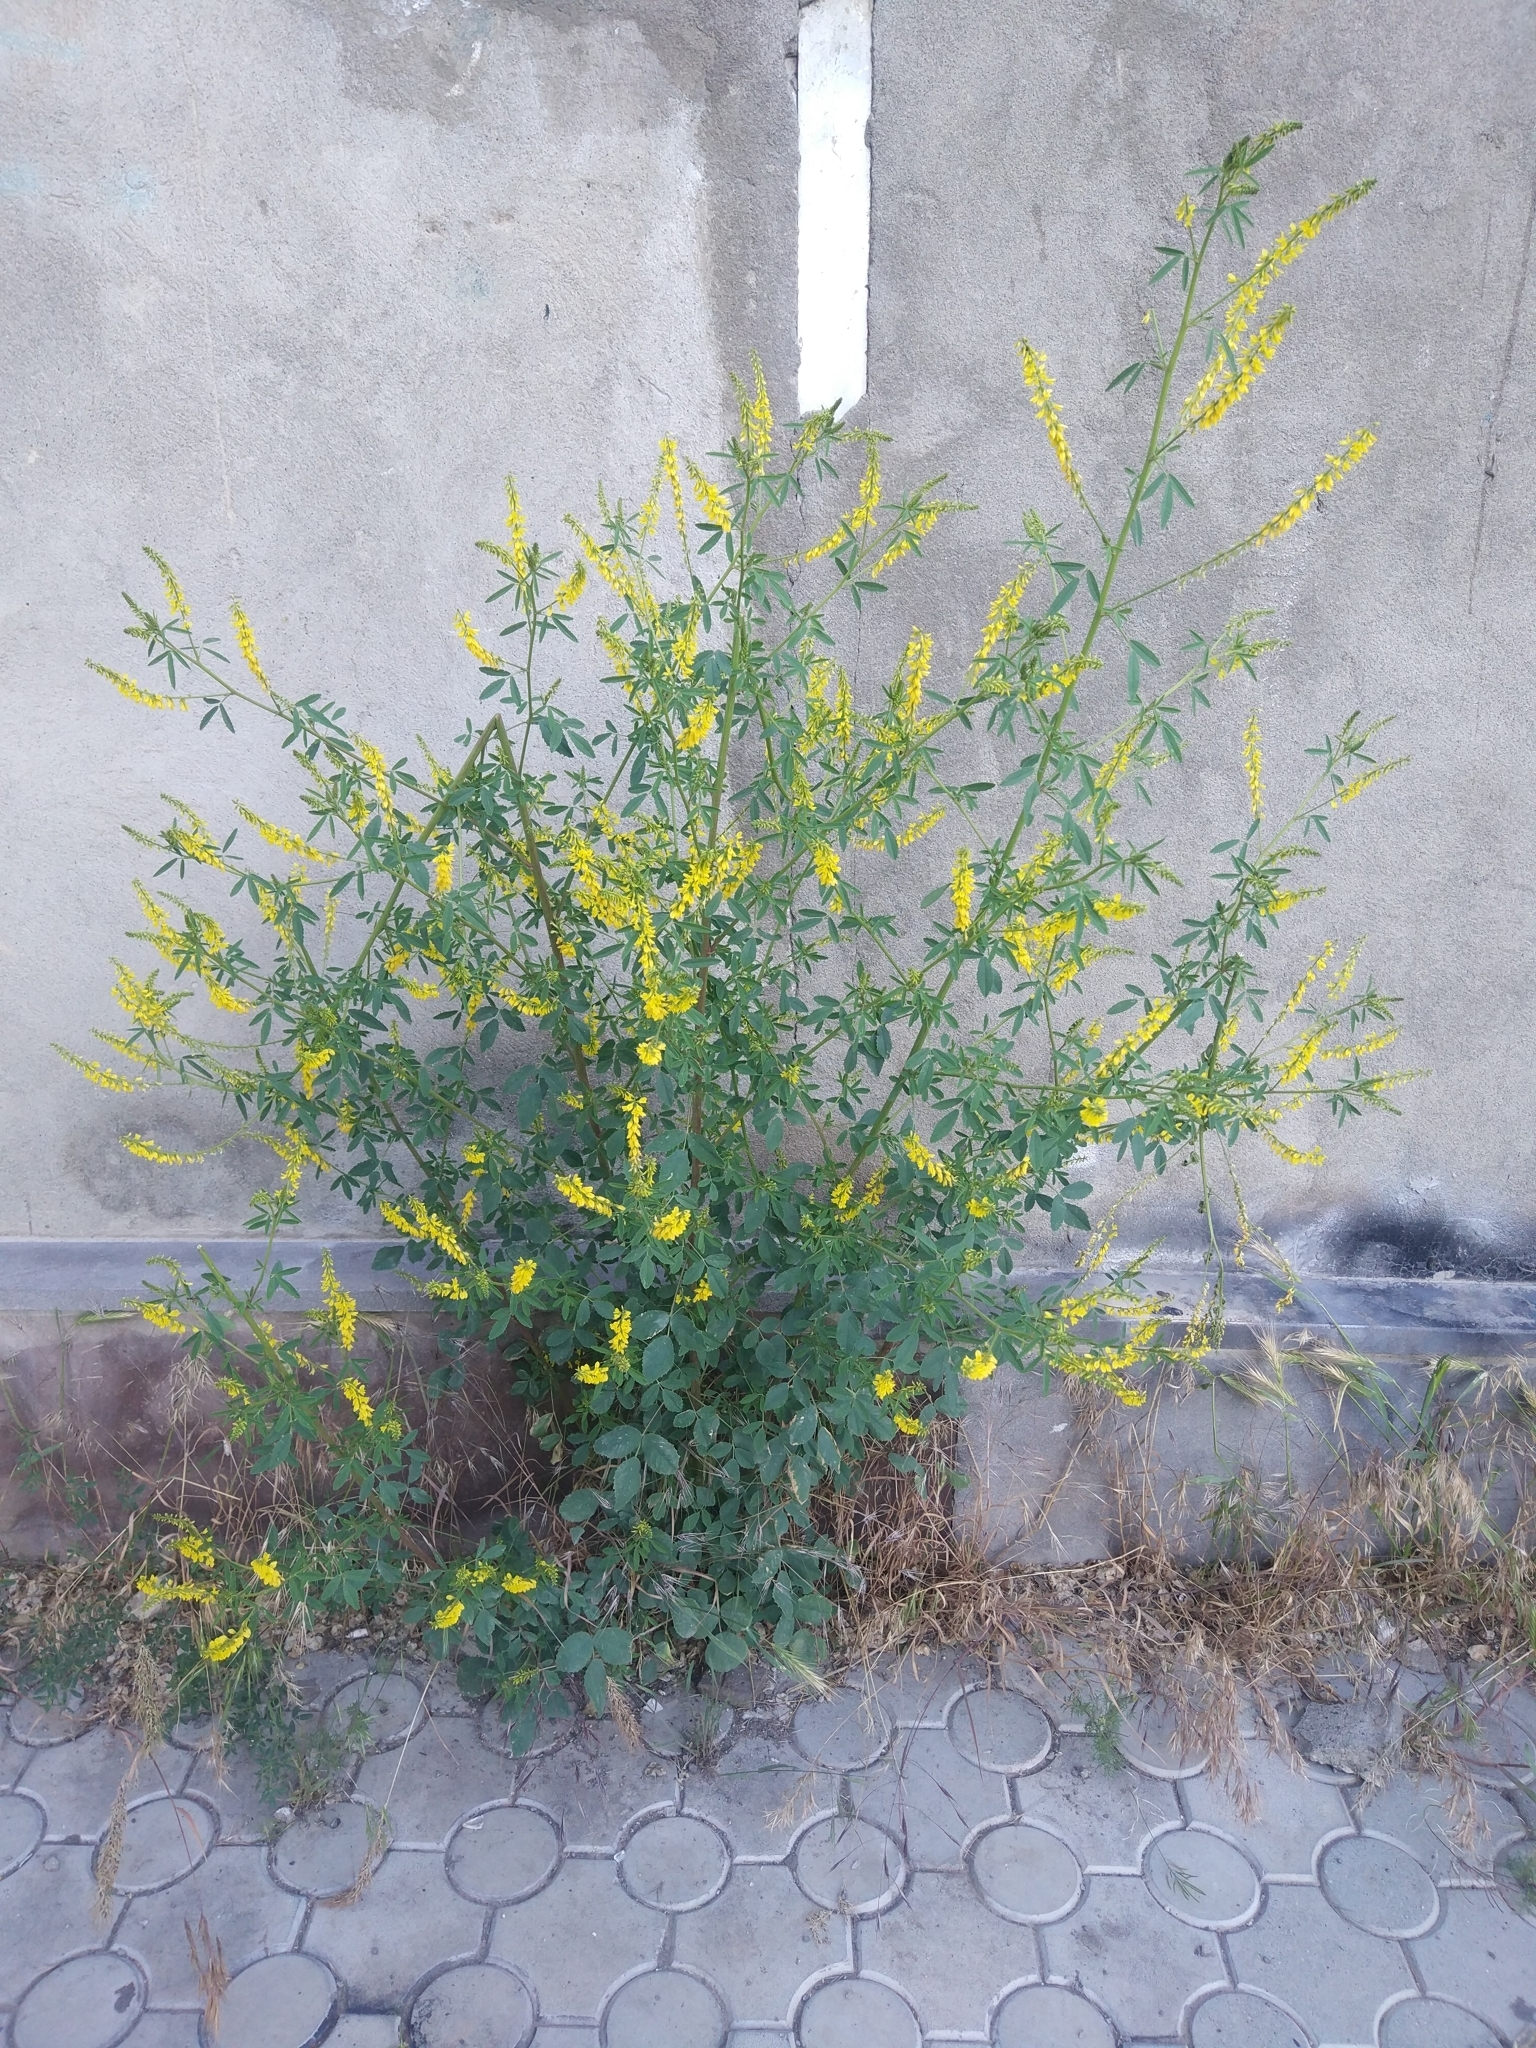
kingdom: Plantae
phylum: Tracheophyta
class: Magnoliopsida
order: Fabales
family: Fabaceae
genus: Melilotus
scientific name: Melilotus officinalis
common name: Sweetclover
